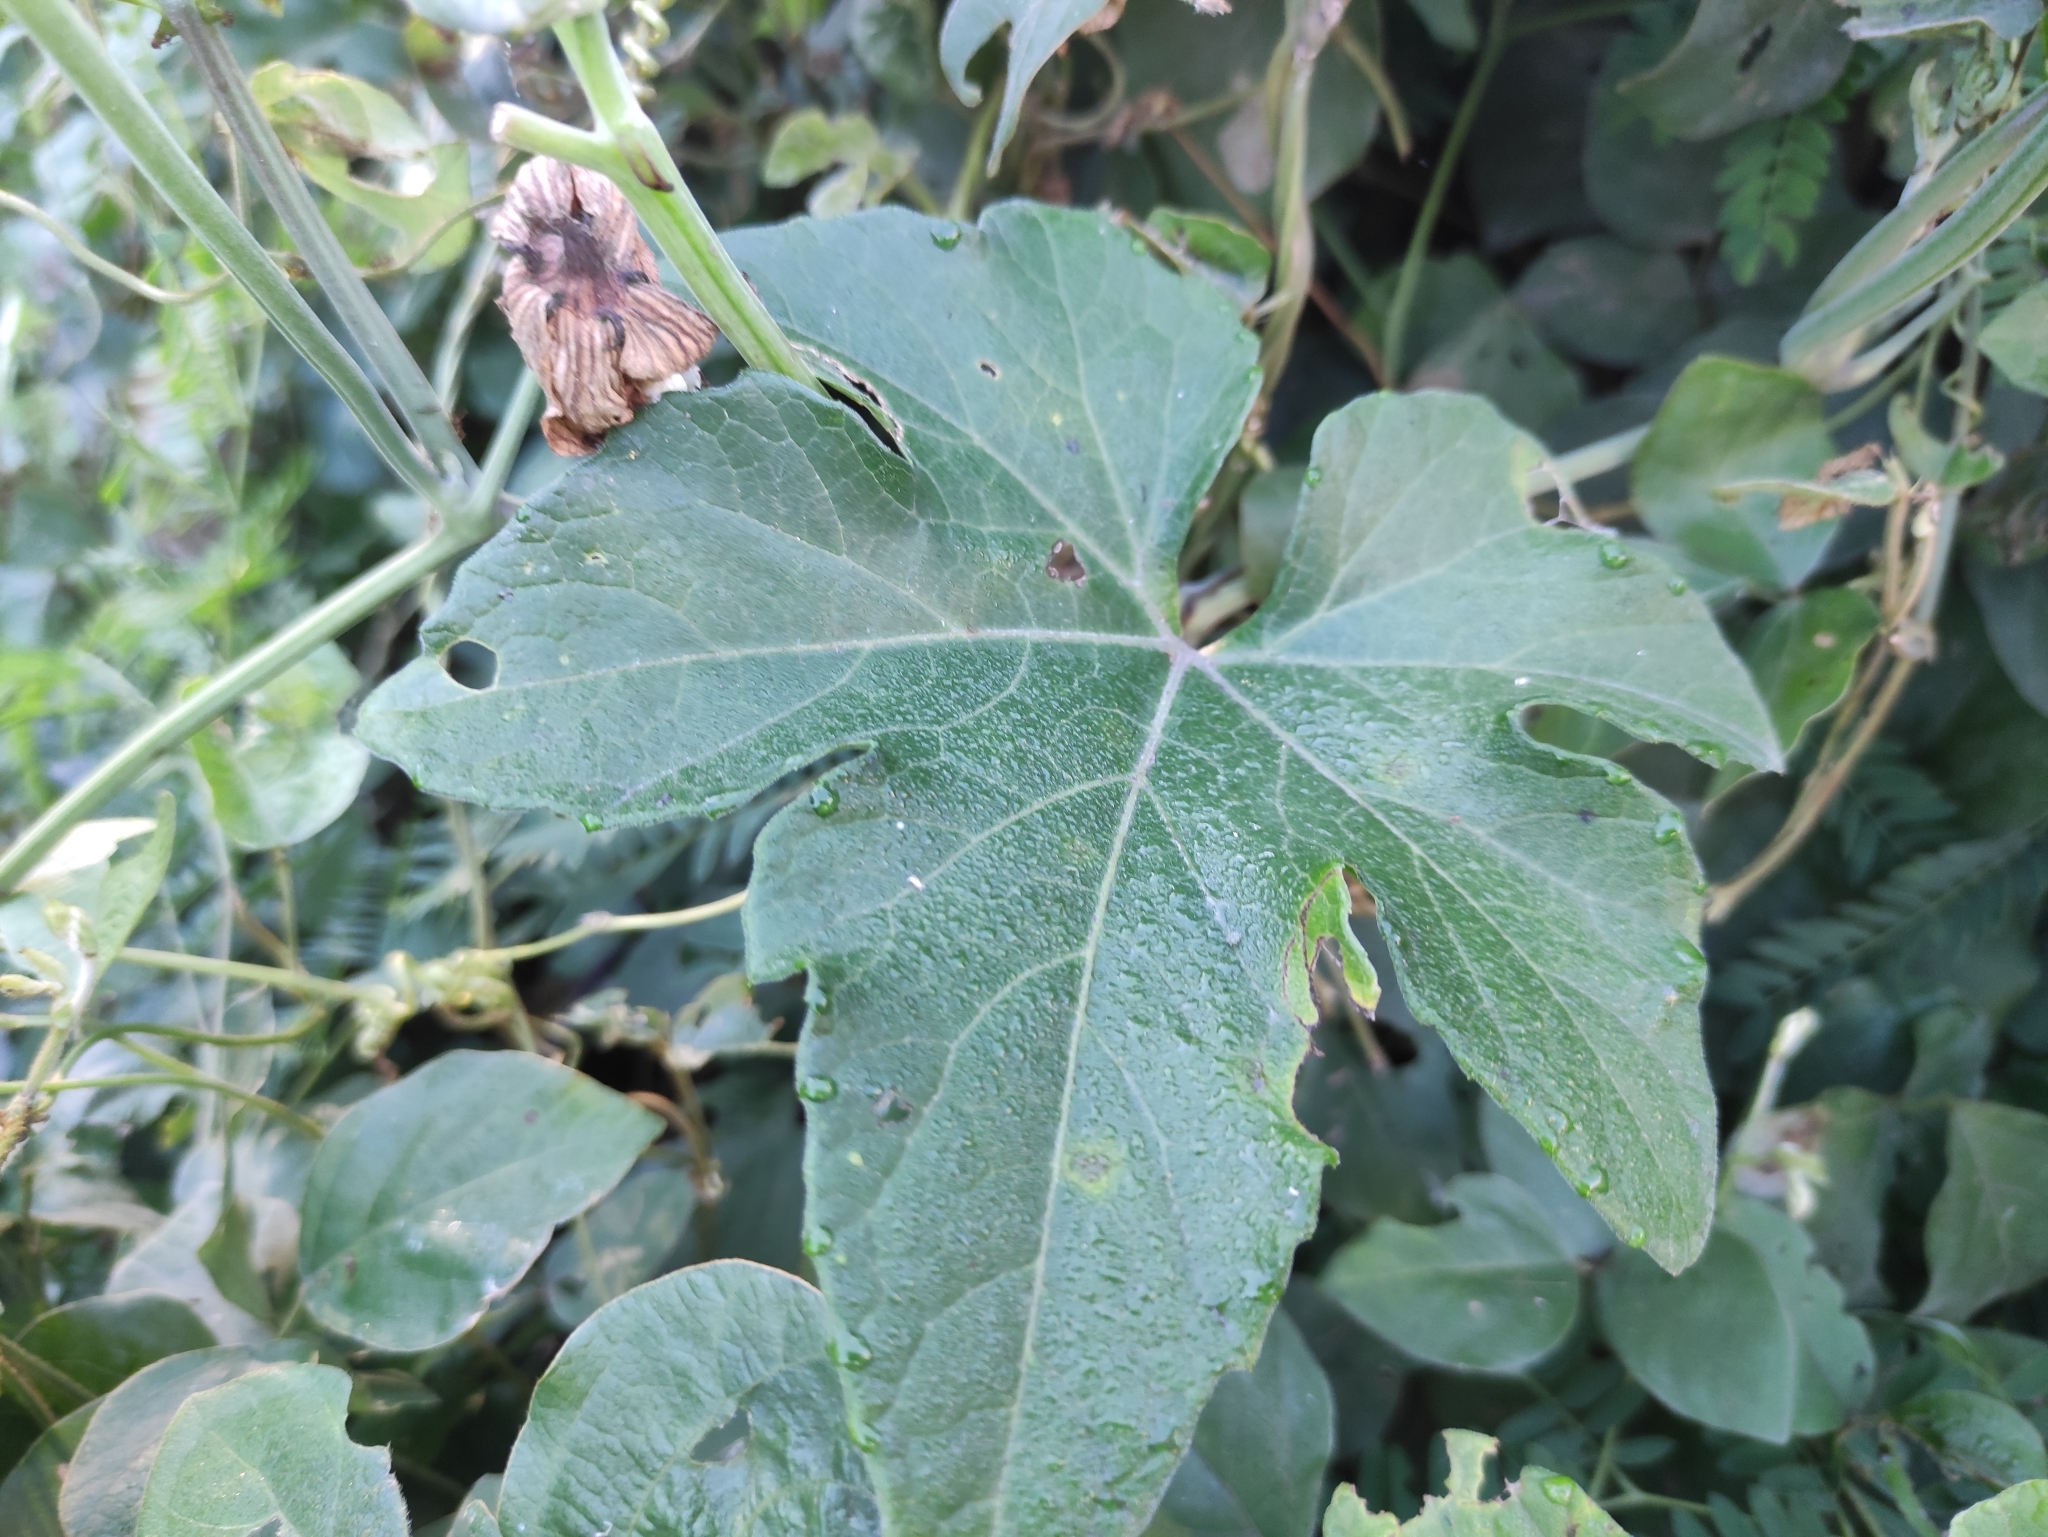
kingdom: Plantae
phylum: Tracheophyta
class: Magnoliopsida
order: Cucurbitales
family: Cucurbitaceae
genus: Lagenaria
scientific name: Lagenaria sphaerica
